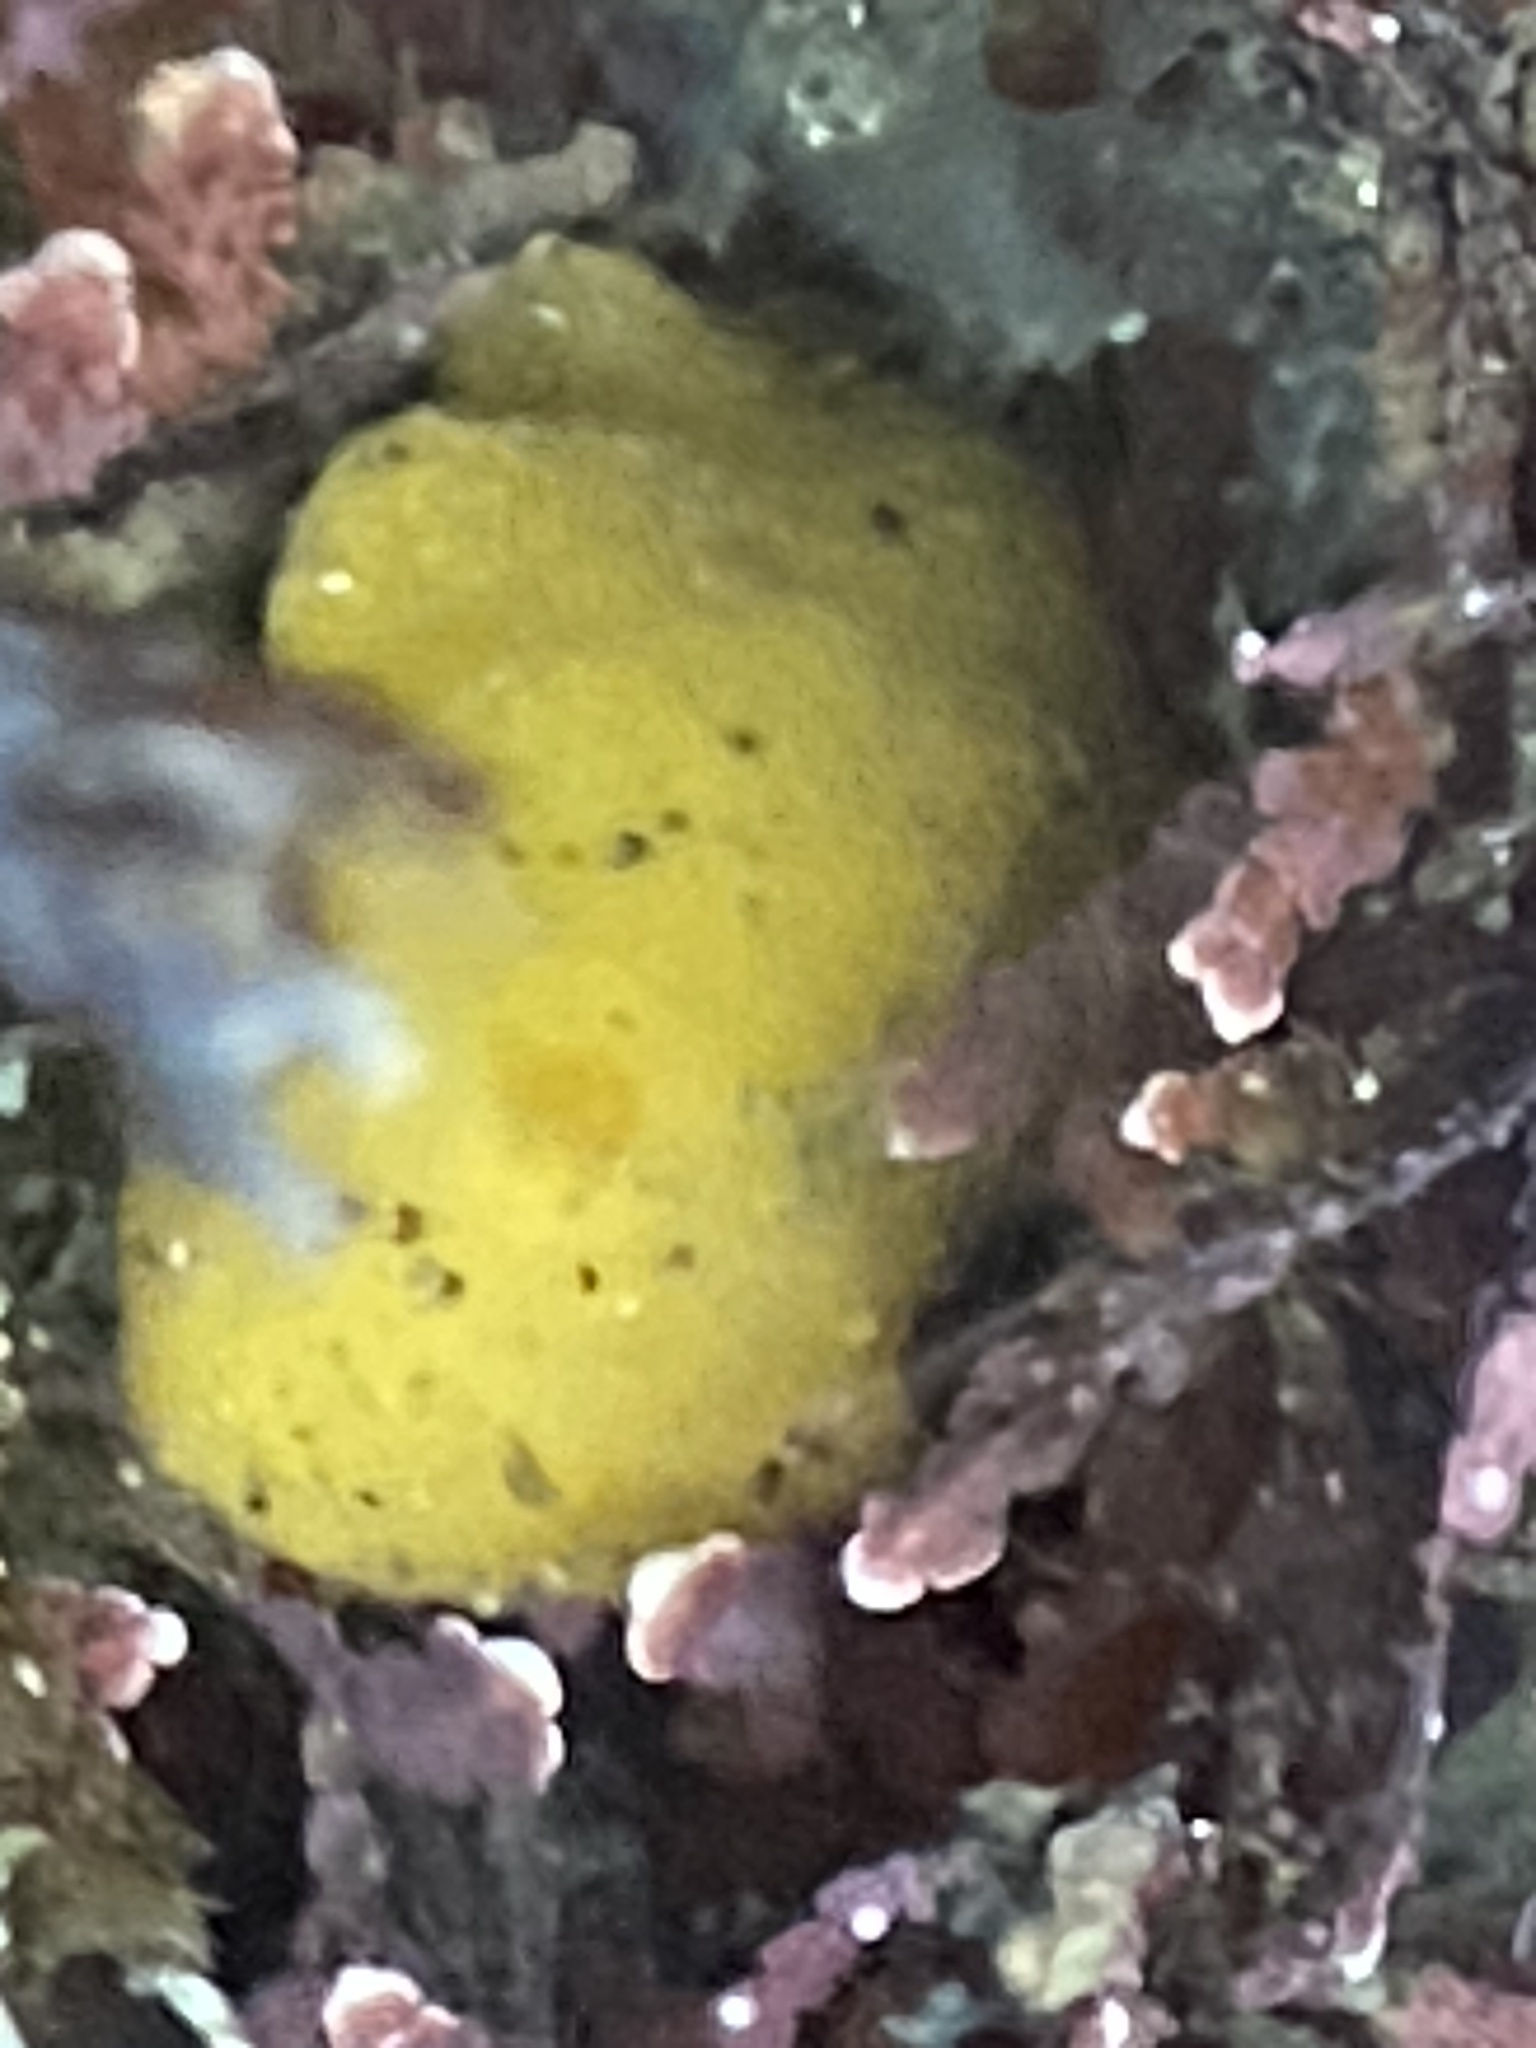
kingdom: Animalia
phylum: Mollusca
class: Gastropoda
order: Nudibranchia
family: Dorididae
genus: Doris
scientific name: Doris montereyensis
